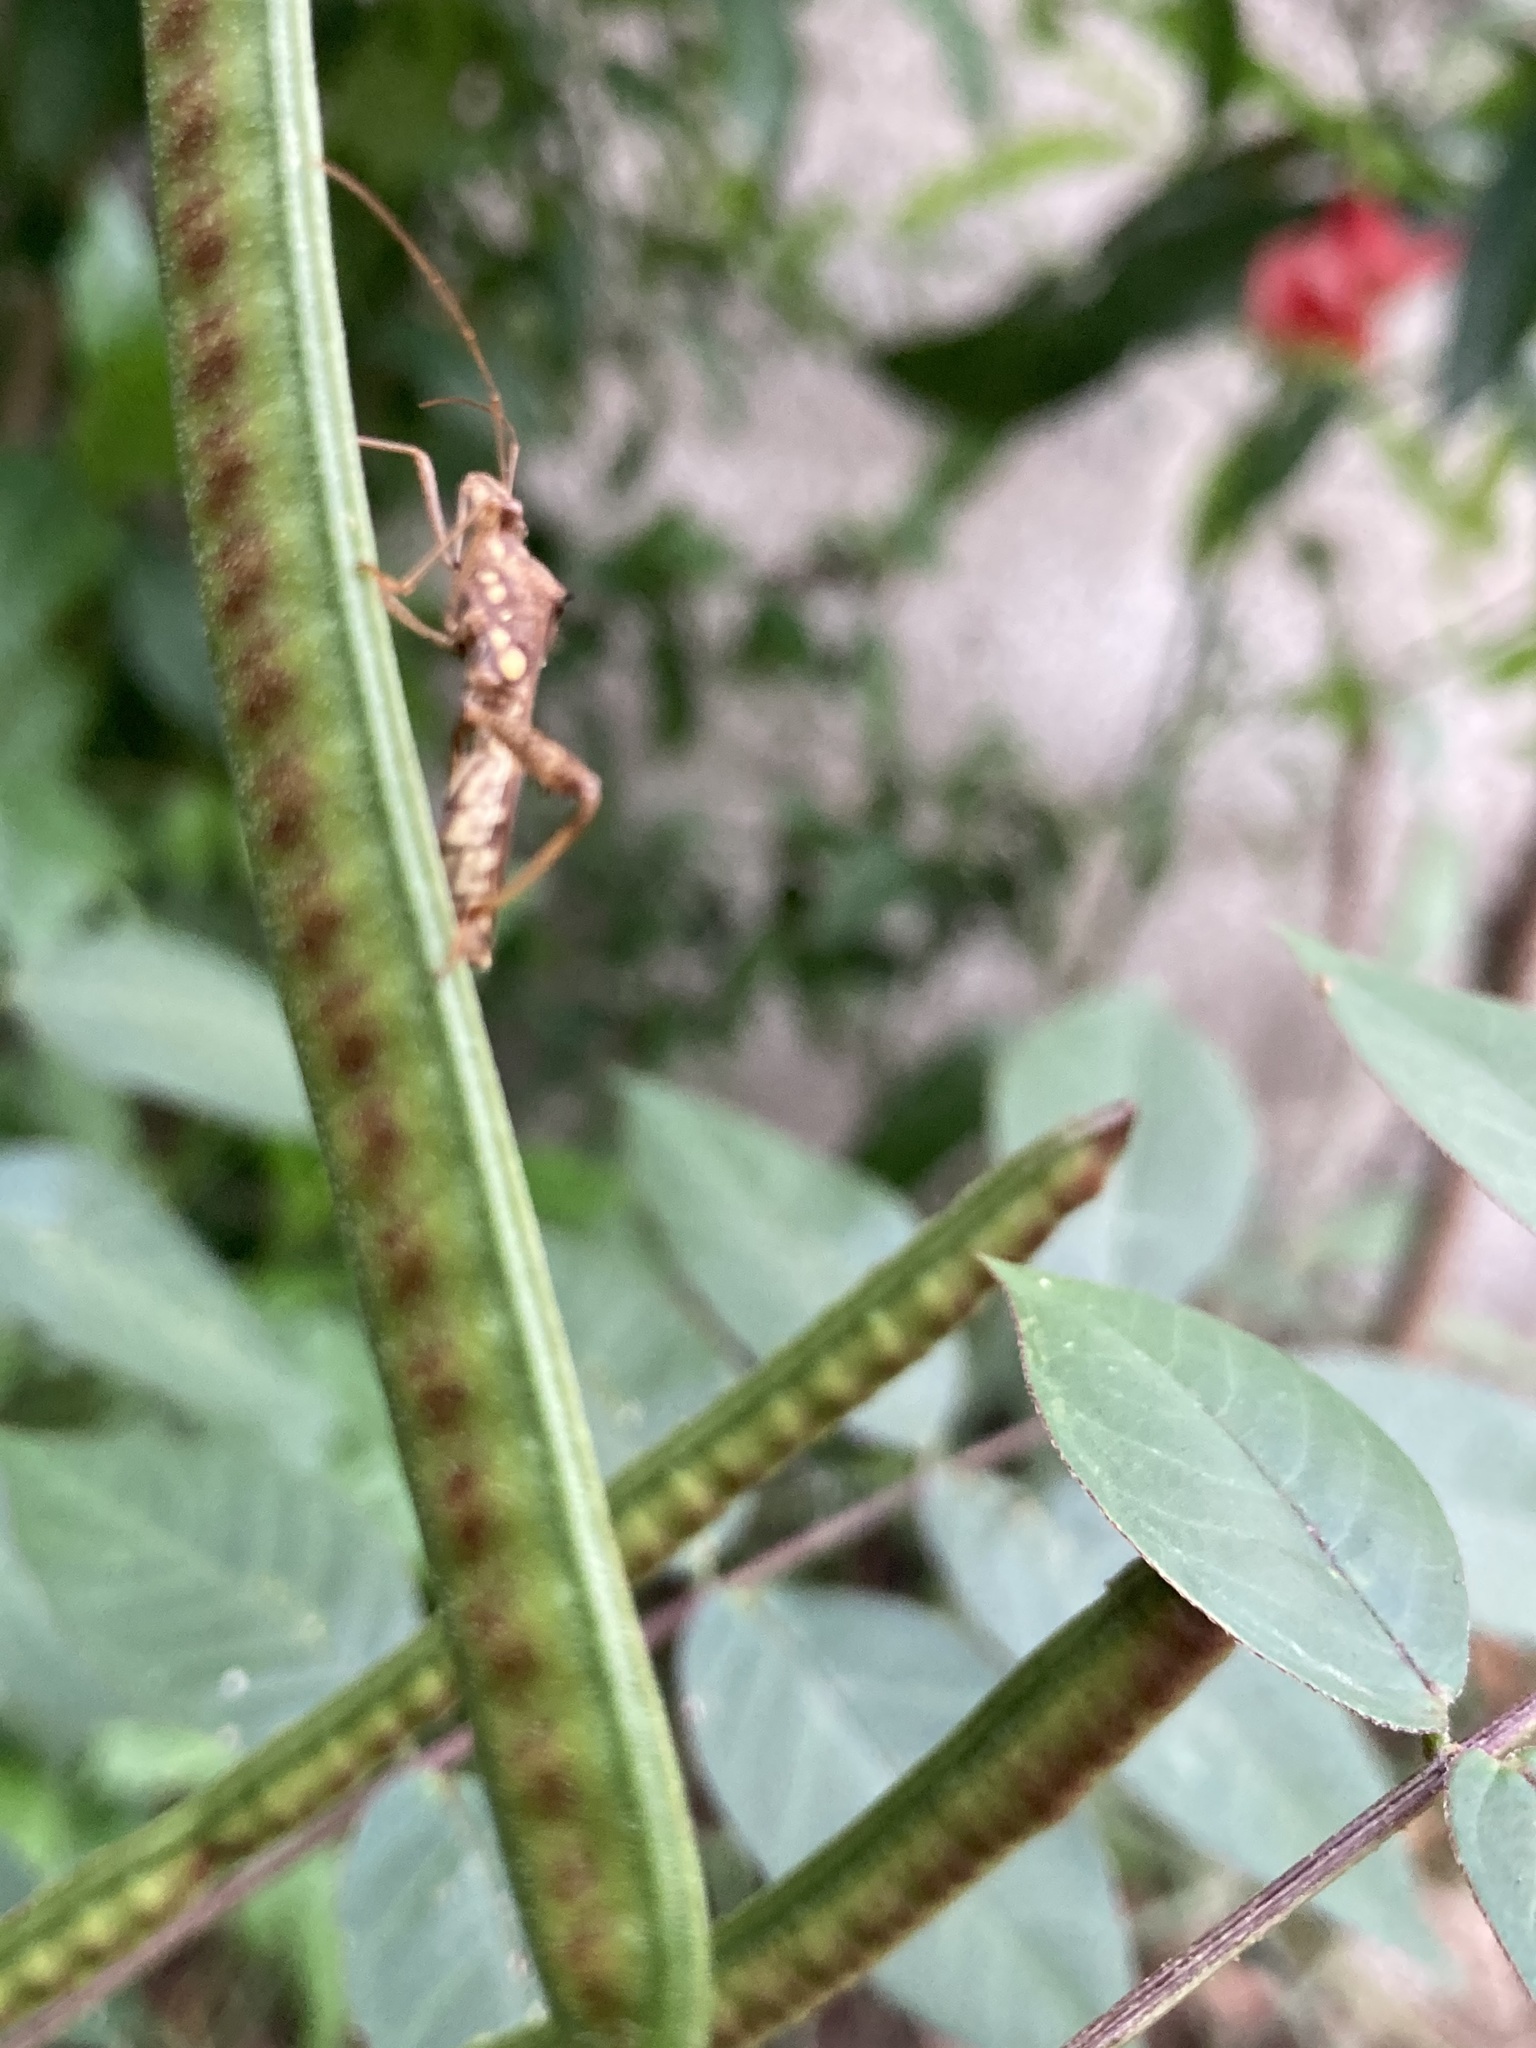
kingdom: Animalia
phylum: Arthropoda
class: Insecta
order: Hemiptera
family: Alydidae
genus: Riptortus
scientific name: Riptortus pedestris
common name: Bean bug
